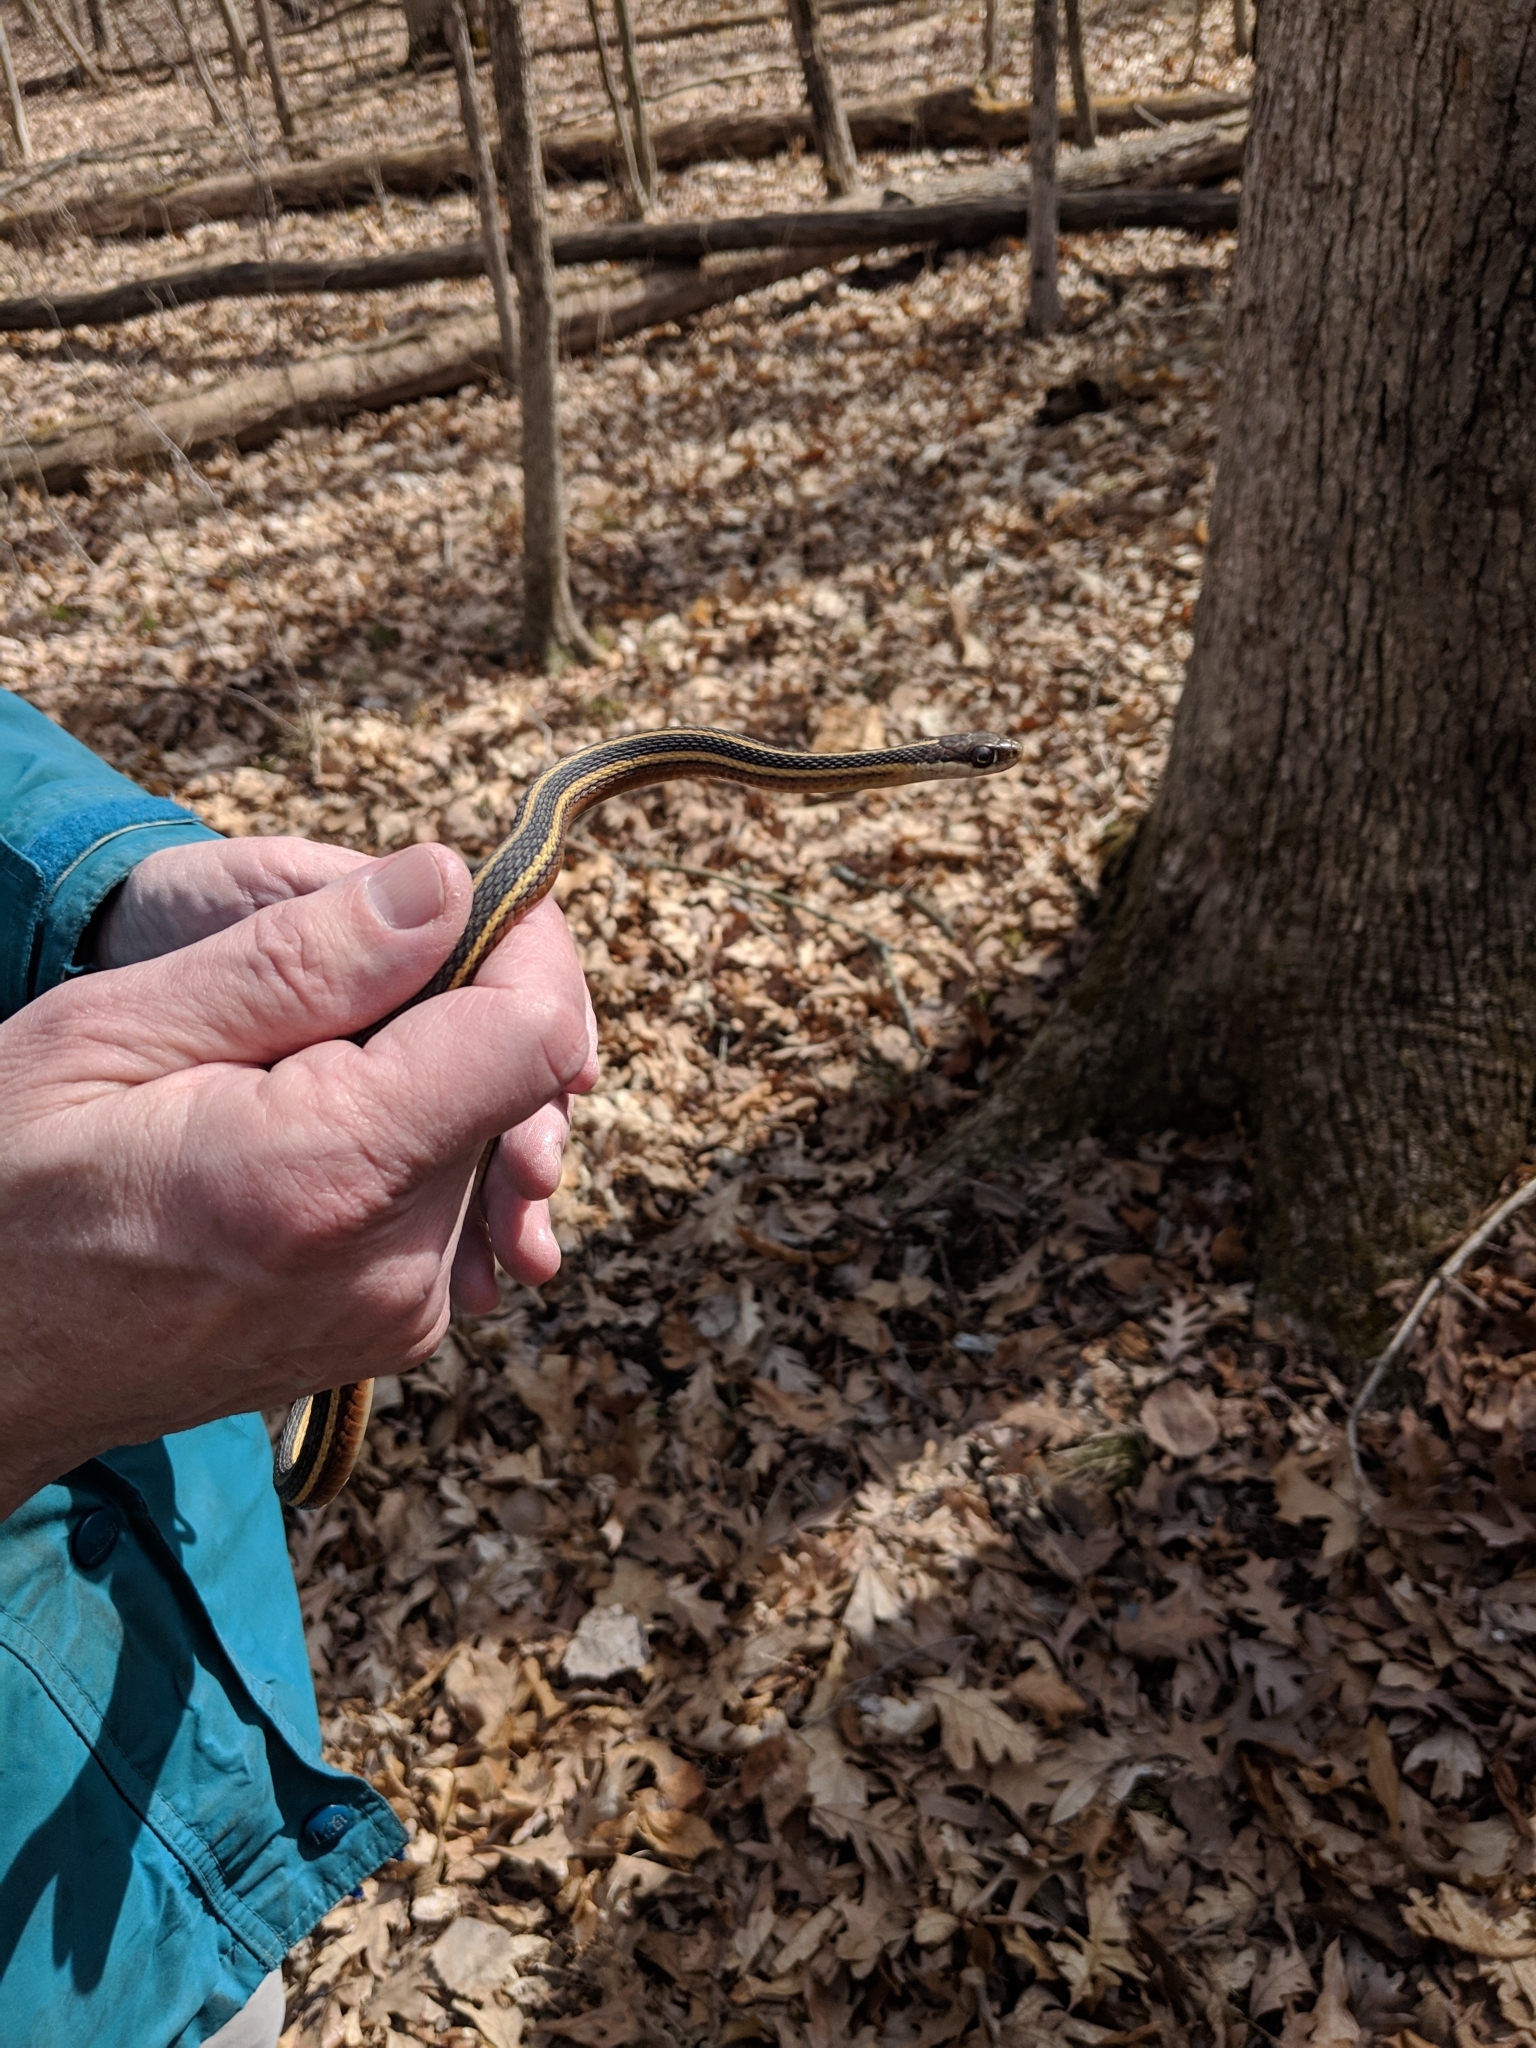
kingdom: Animalia
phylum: Chordata
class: Squamata
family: Colubridae
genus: Thamnophis
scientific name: Thamnophis saurita
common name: Eastern ribbonsnake
